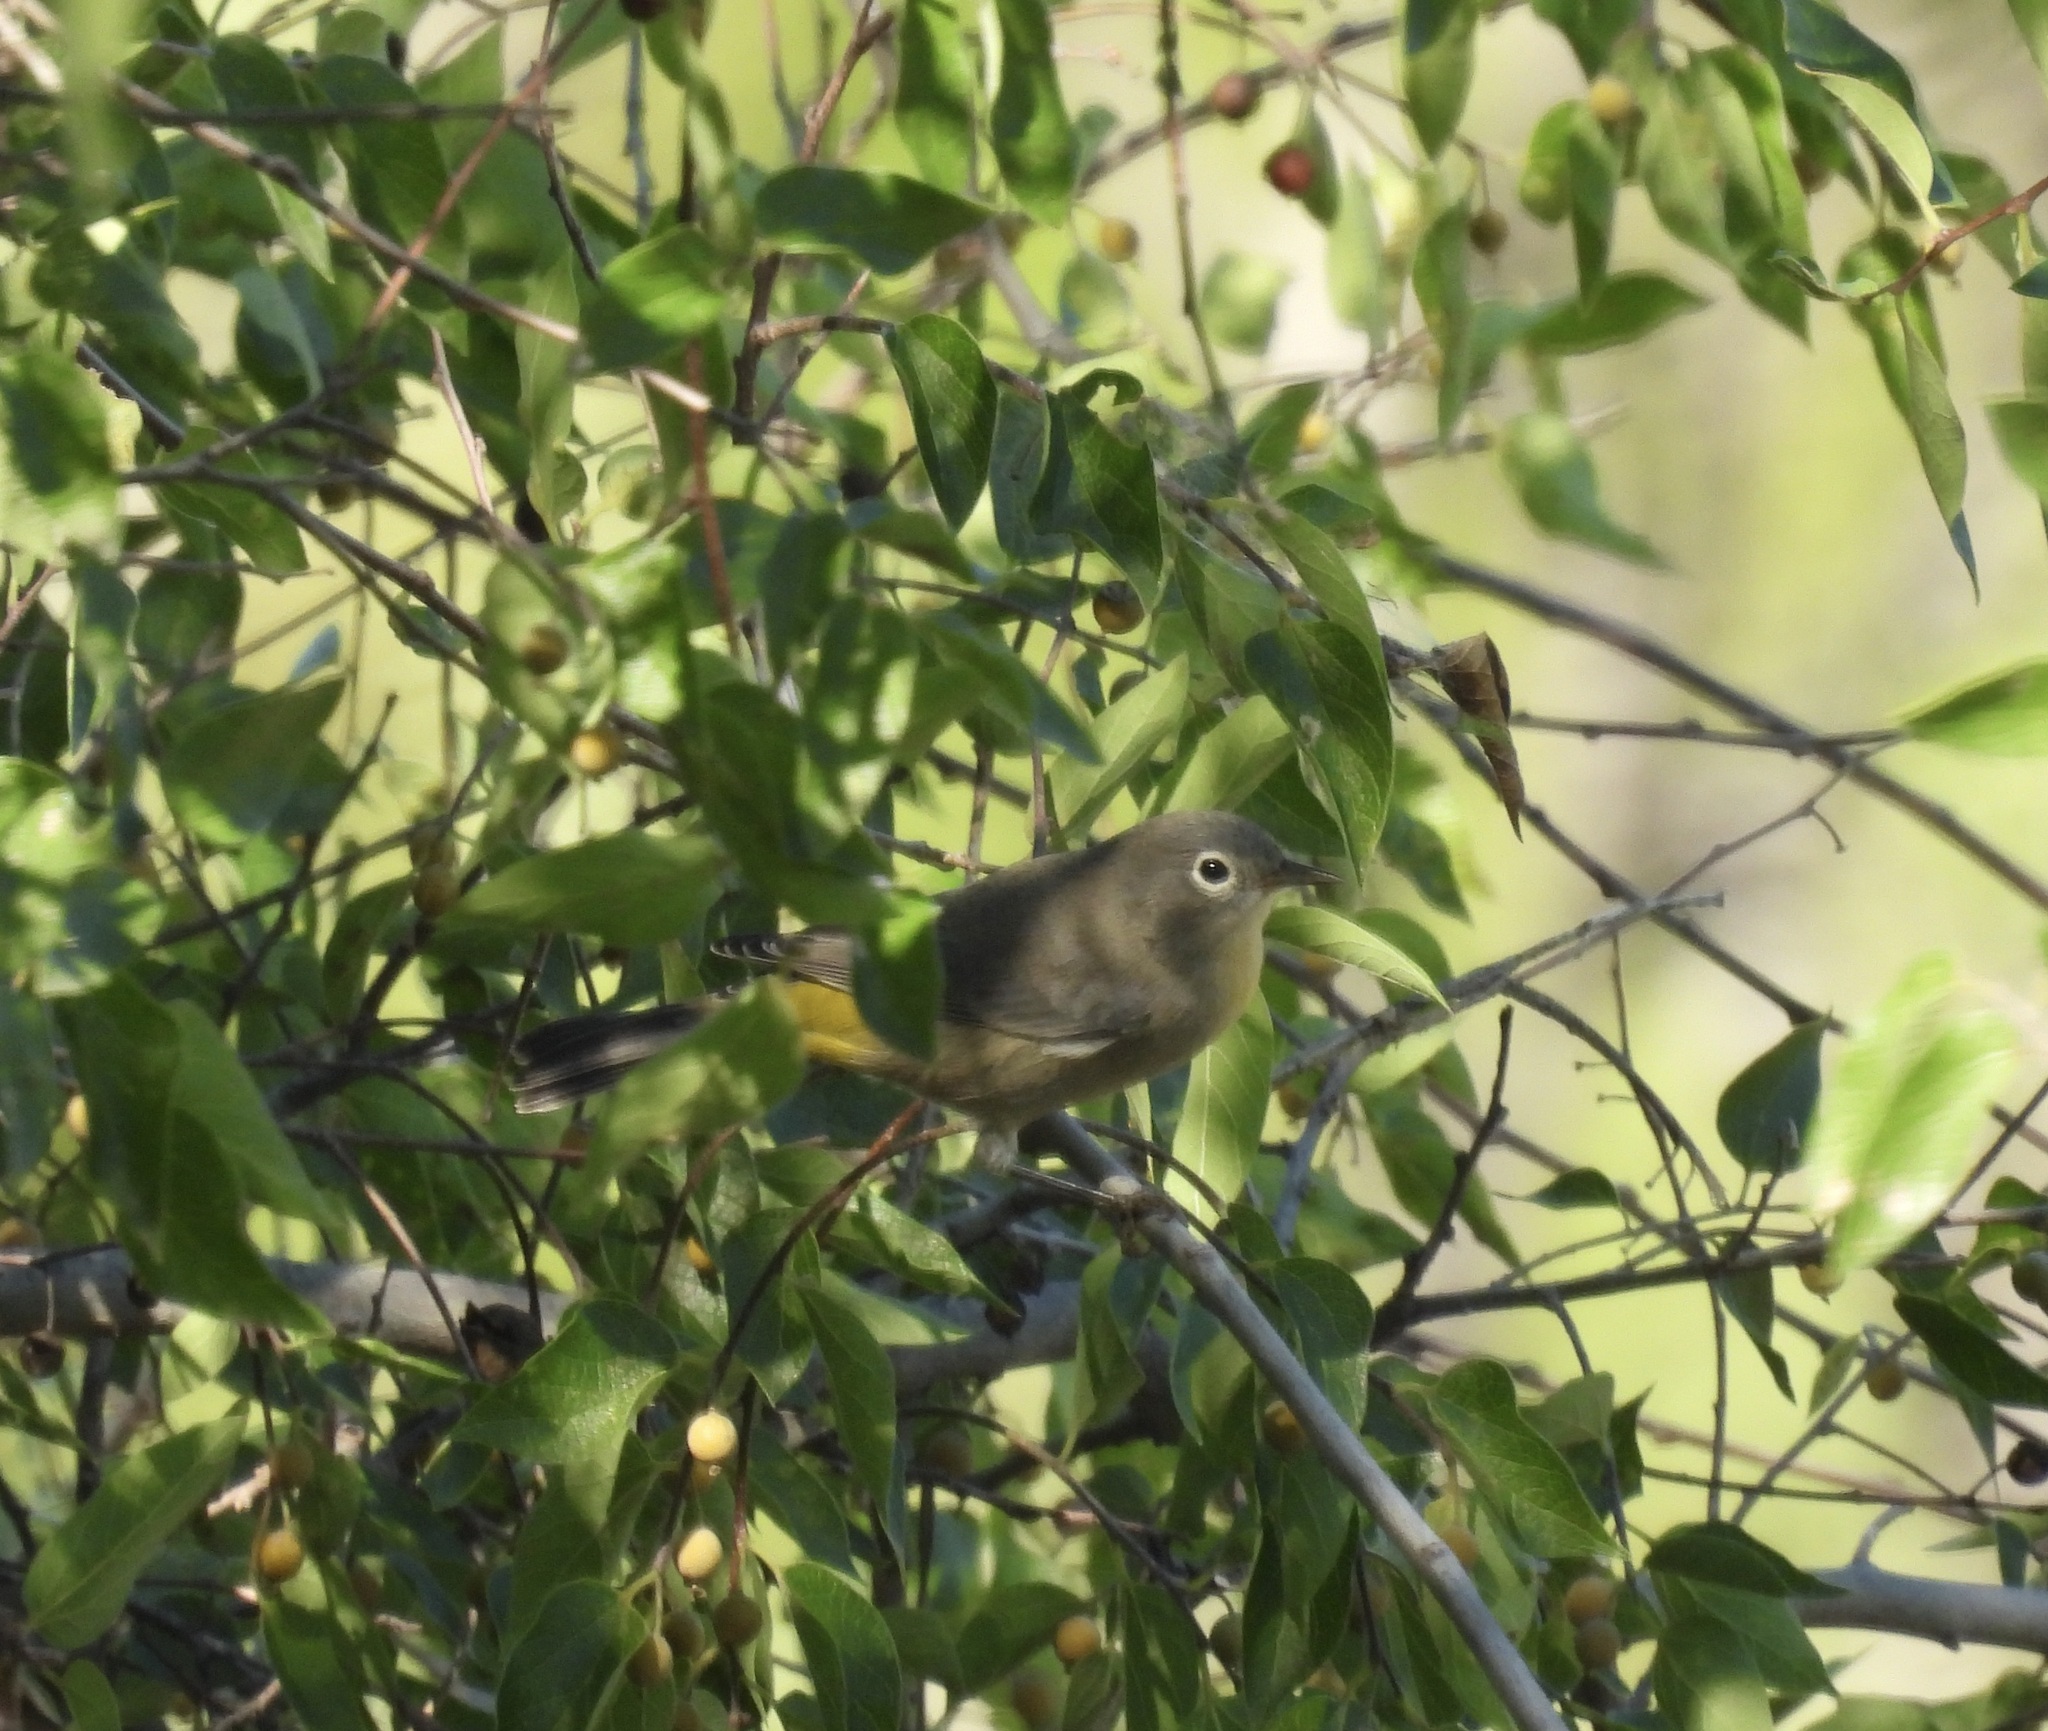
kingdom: Animalia
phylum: Chordata
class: Aves
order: Passeriformes
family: Parulidae
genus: Leiothlypis
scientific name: Leiothlypis virginiae
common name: Virginia's warbler
